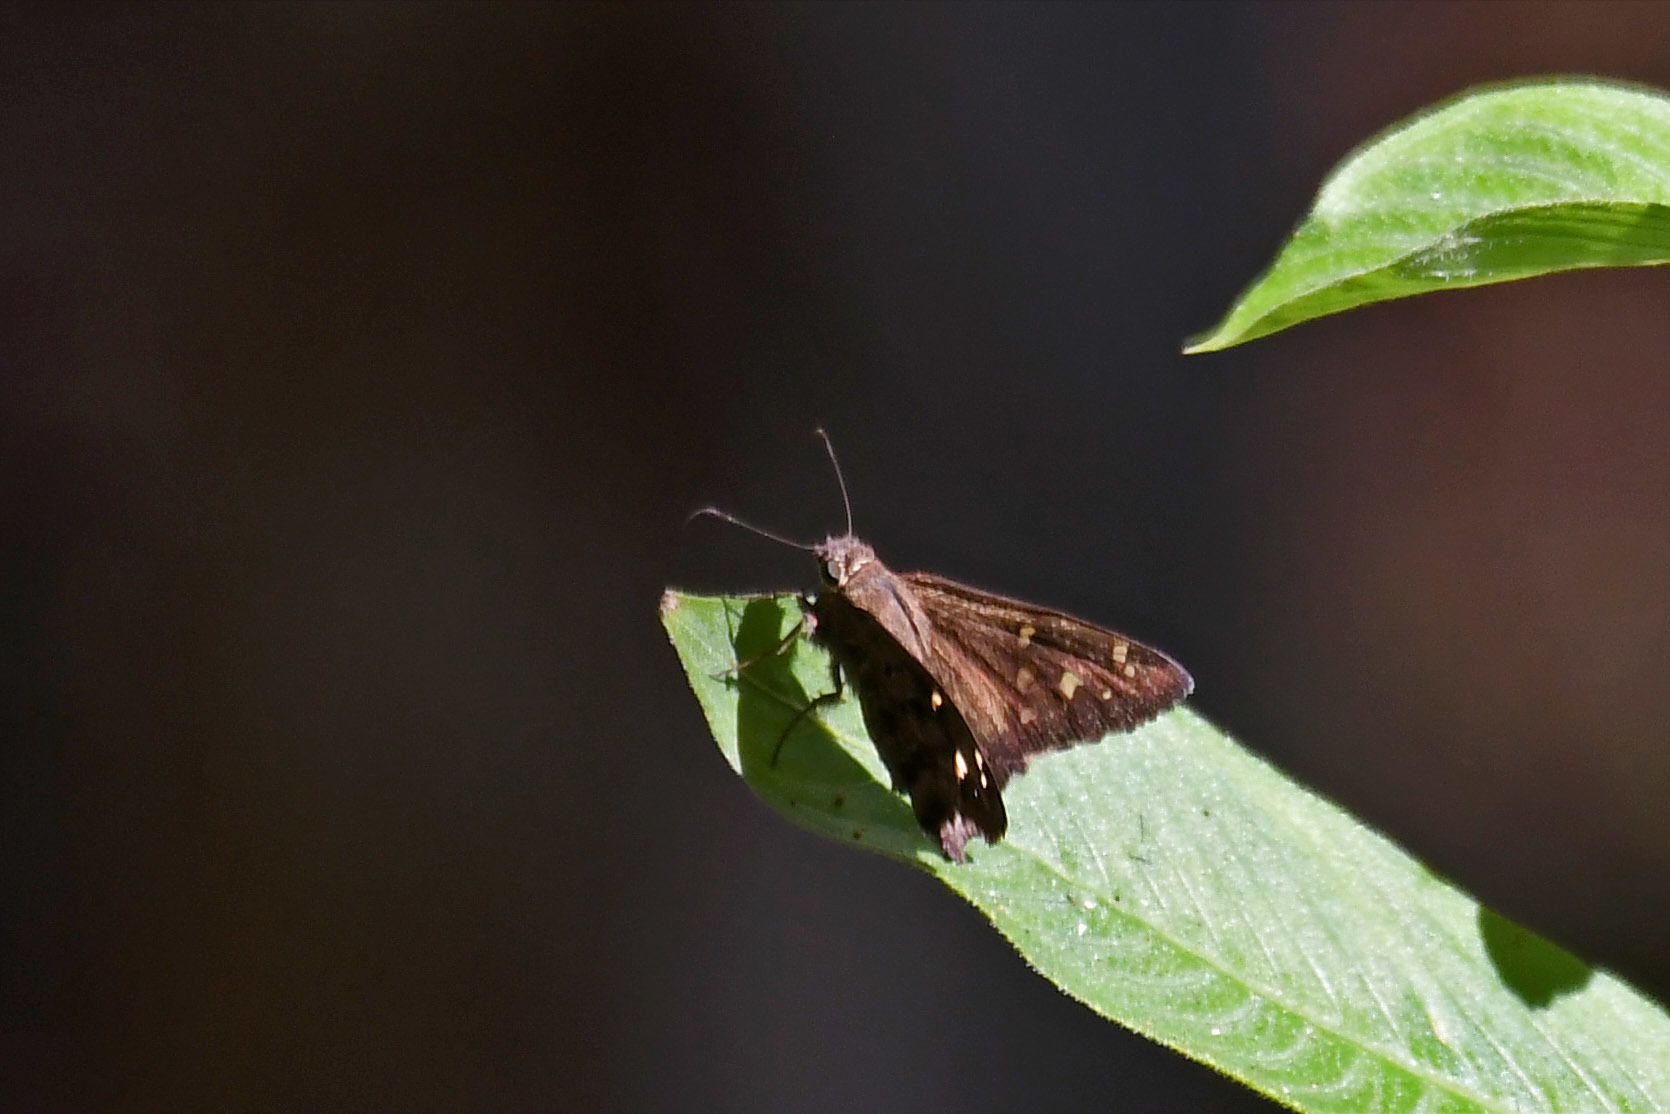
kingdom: Animalia
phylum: Arthropoda
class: Insecta
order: Lepidoptera
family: Hesperiidae
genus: Thorybes
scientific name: Thorybes
